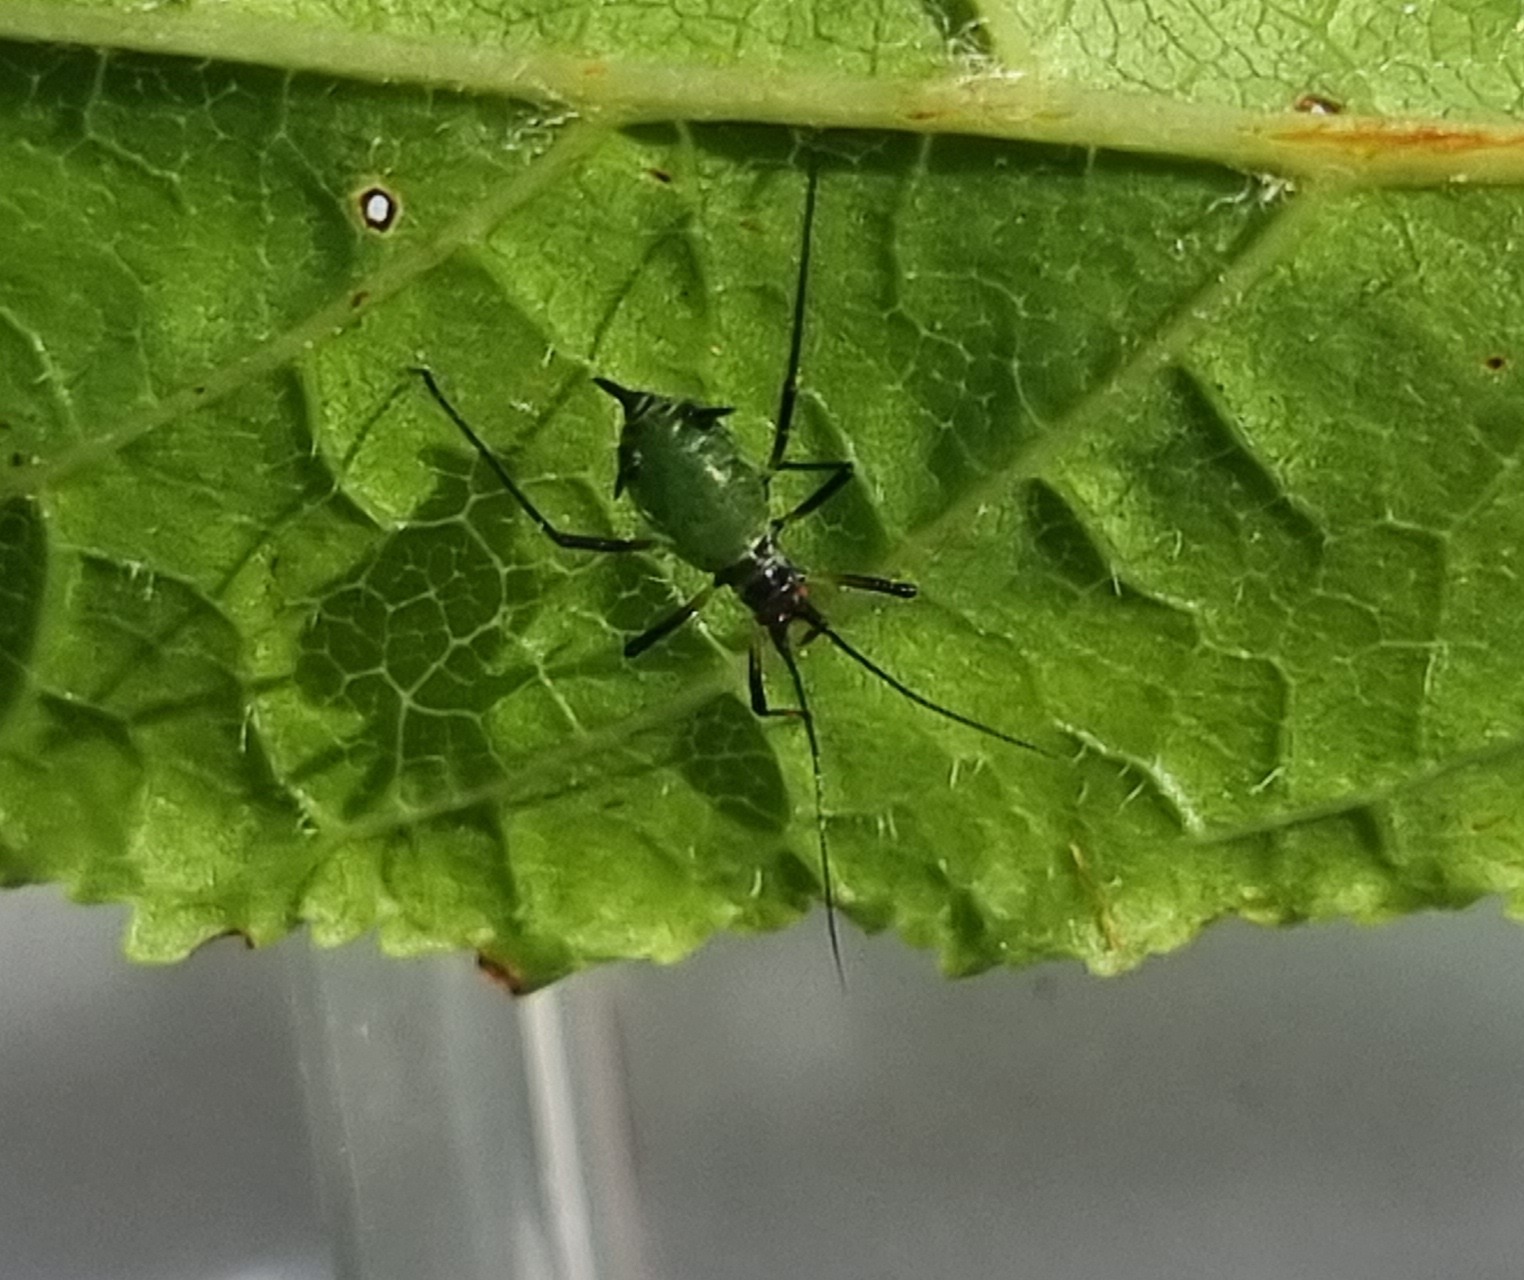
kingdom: Animalia
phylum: Arthropoda
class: Insecta
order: Hemiptera
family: Aphididae
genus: Megoura
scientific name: Megoura viciae
